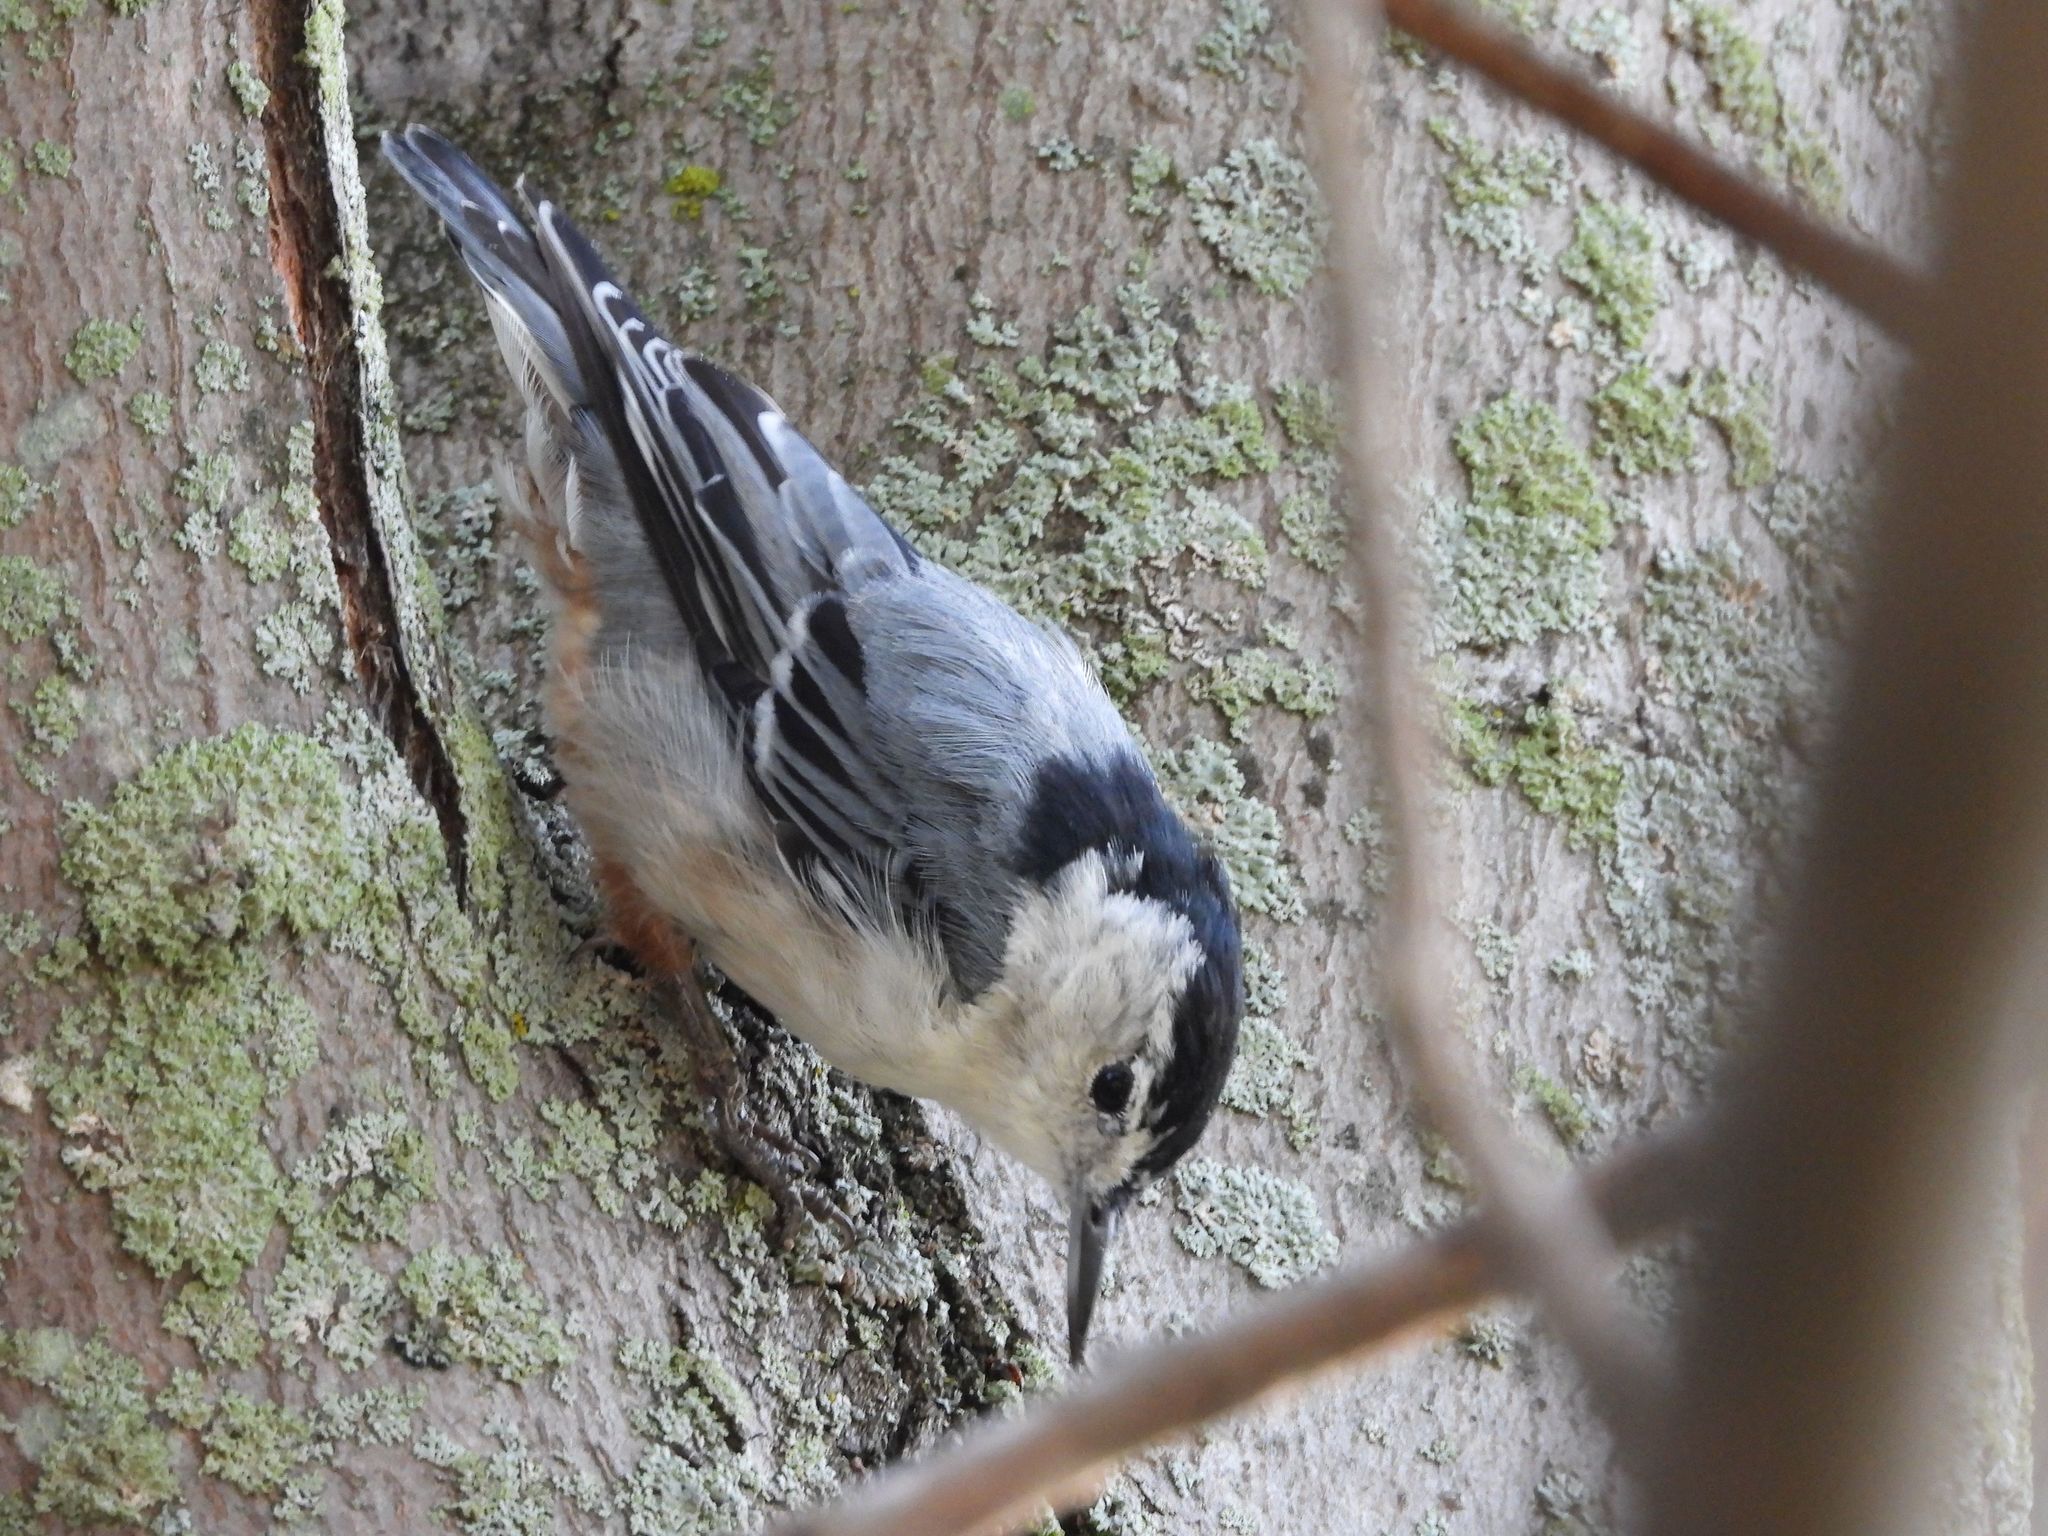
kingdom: Animalia
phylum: Chordata
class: Aves
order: Passeriformes
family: Sittidae
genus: Sitta
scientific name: Sitta carolinensis
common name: White-breasted nuthatch
